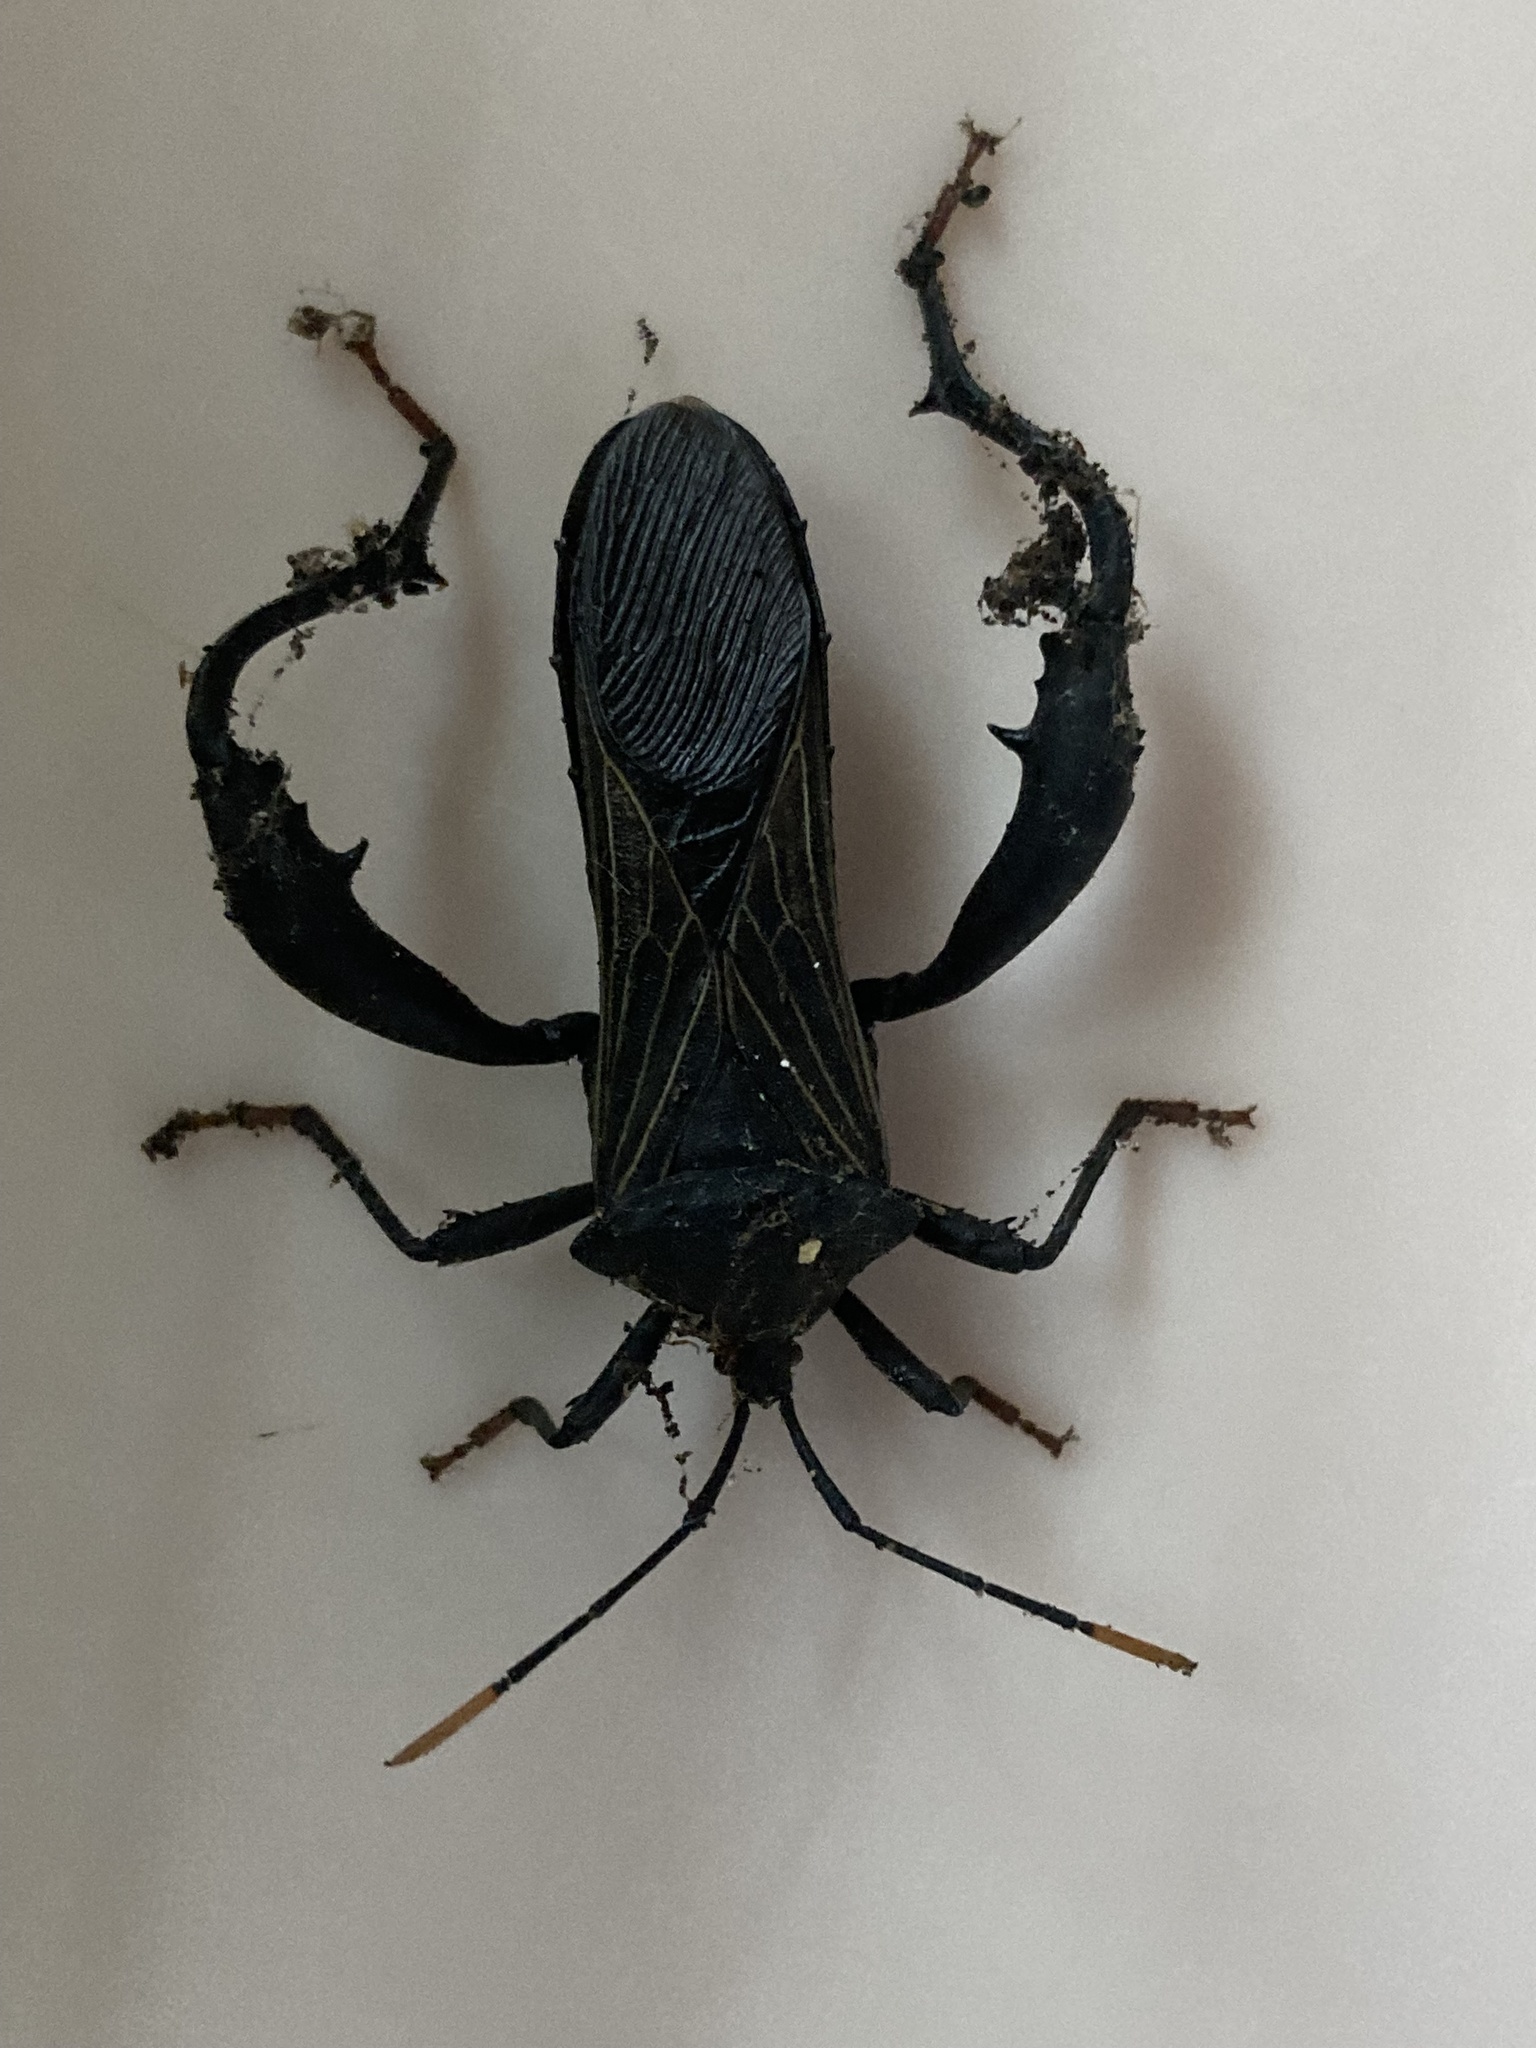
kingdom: Animalia
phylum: Arthropoda
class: Insecta
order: Hemiptera
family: Coreidae
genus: Piezogaster
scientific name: Piezogaster vates
